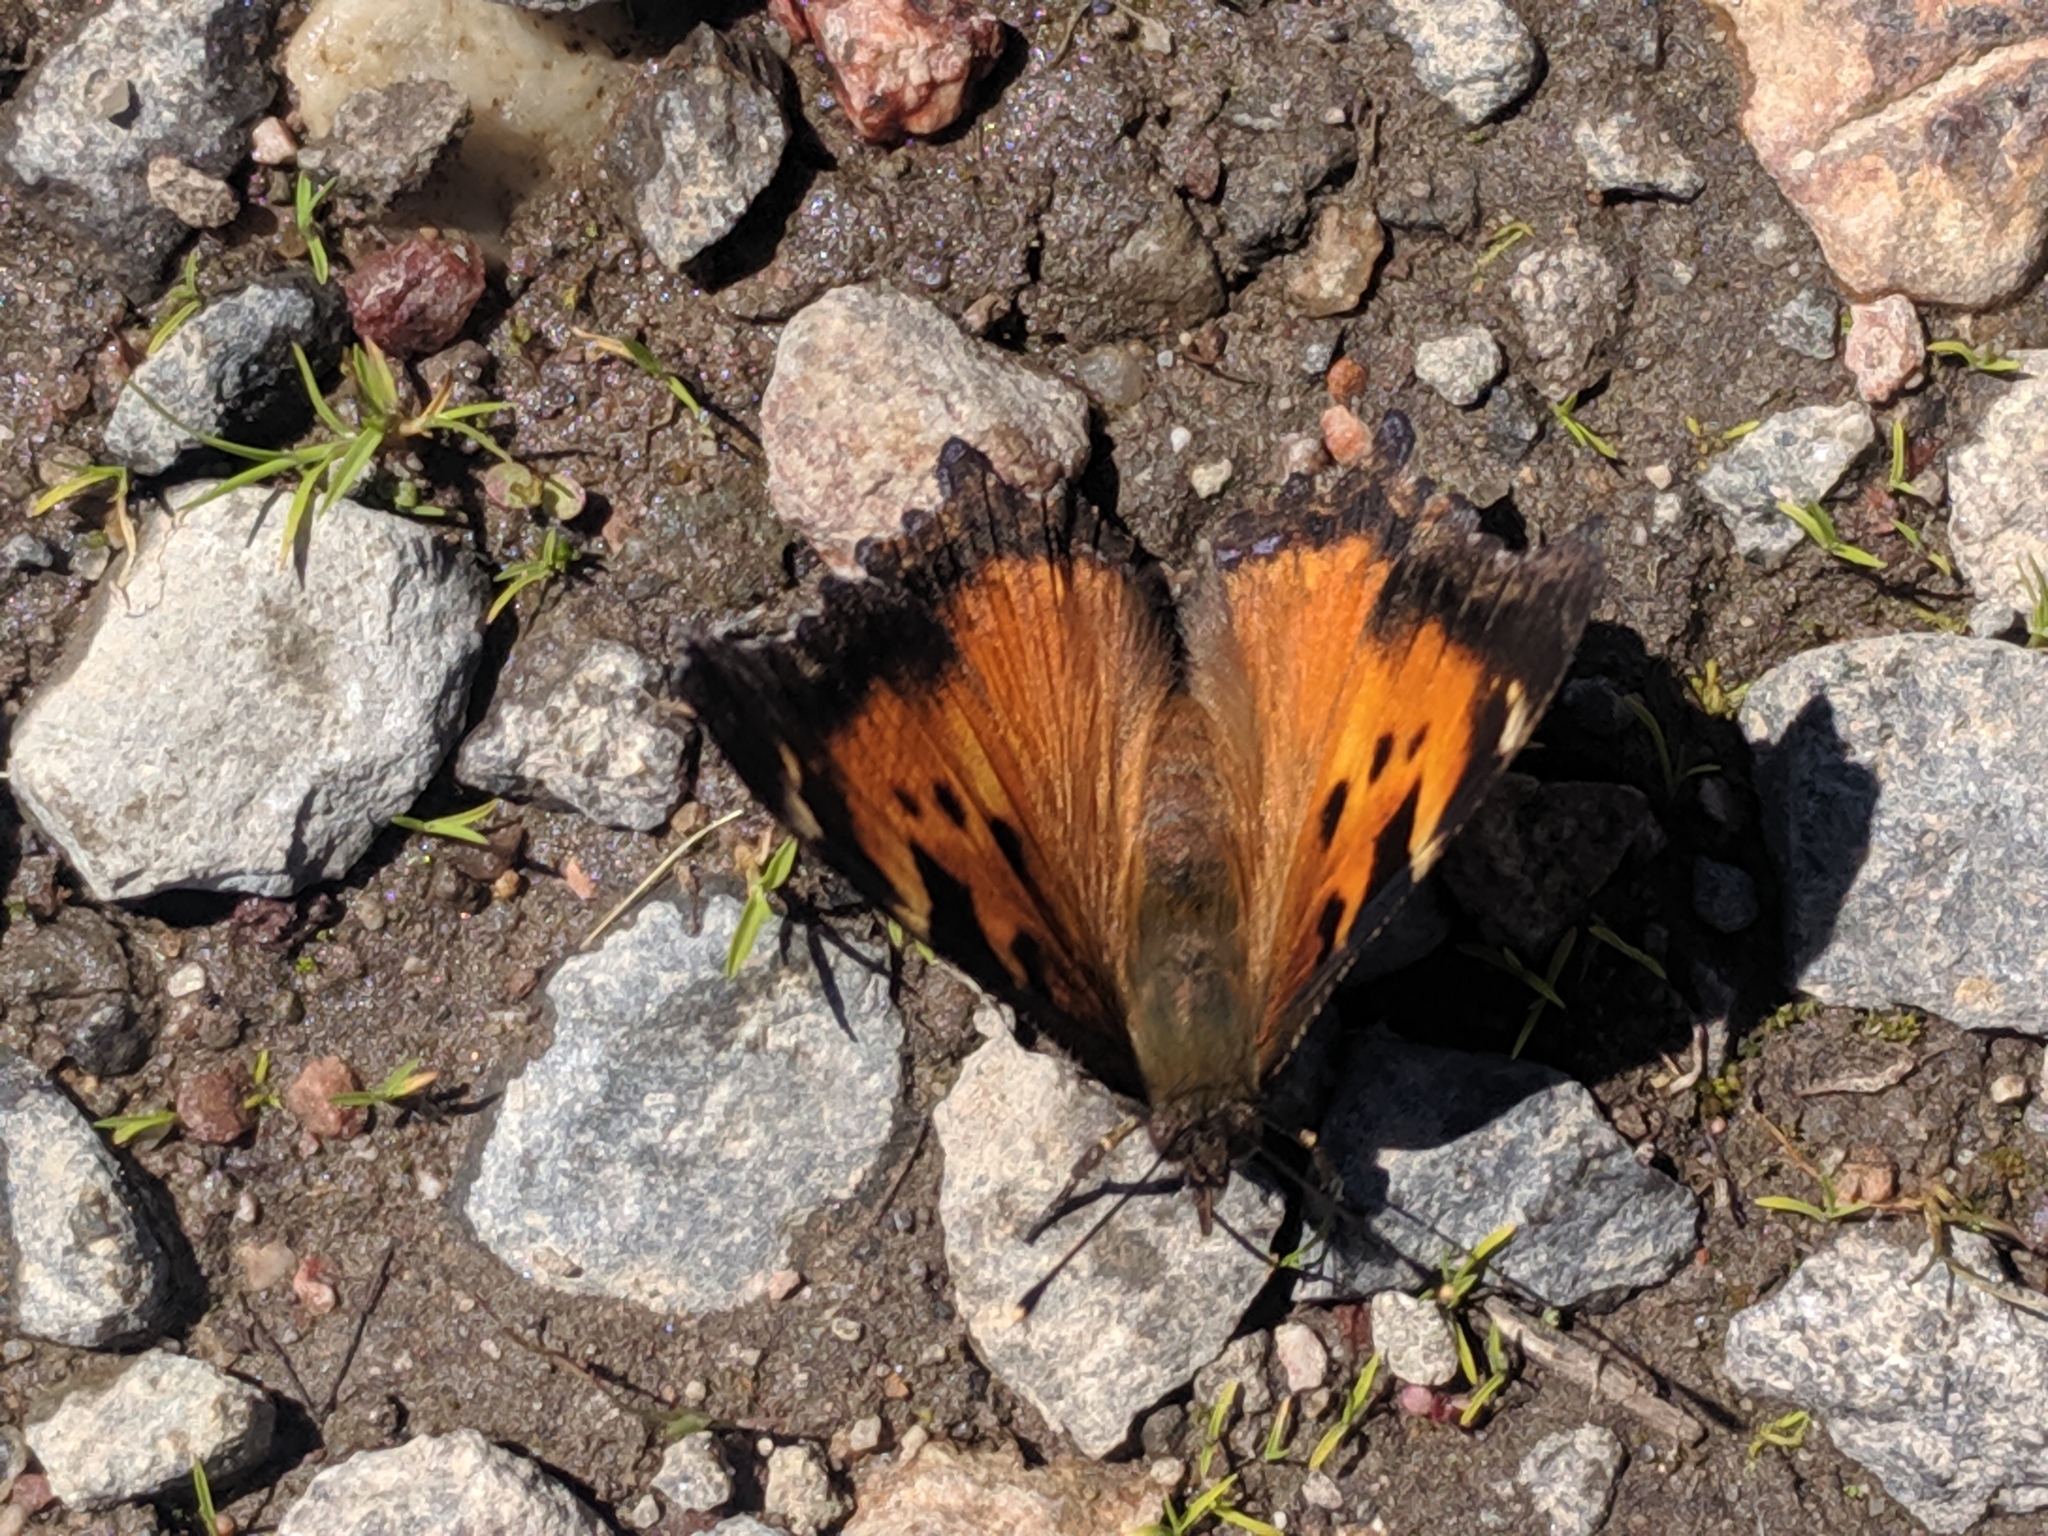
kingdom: Animalia
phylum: Arthropoda
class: Insecta
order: Lepidoptera
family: Nymphalidae
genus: Nymphalis
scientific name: Nymphalis californica
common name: California tortoiseshell
